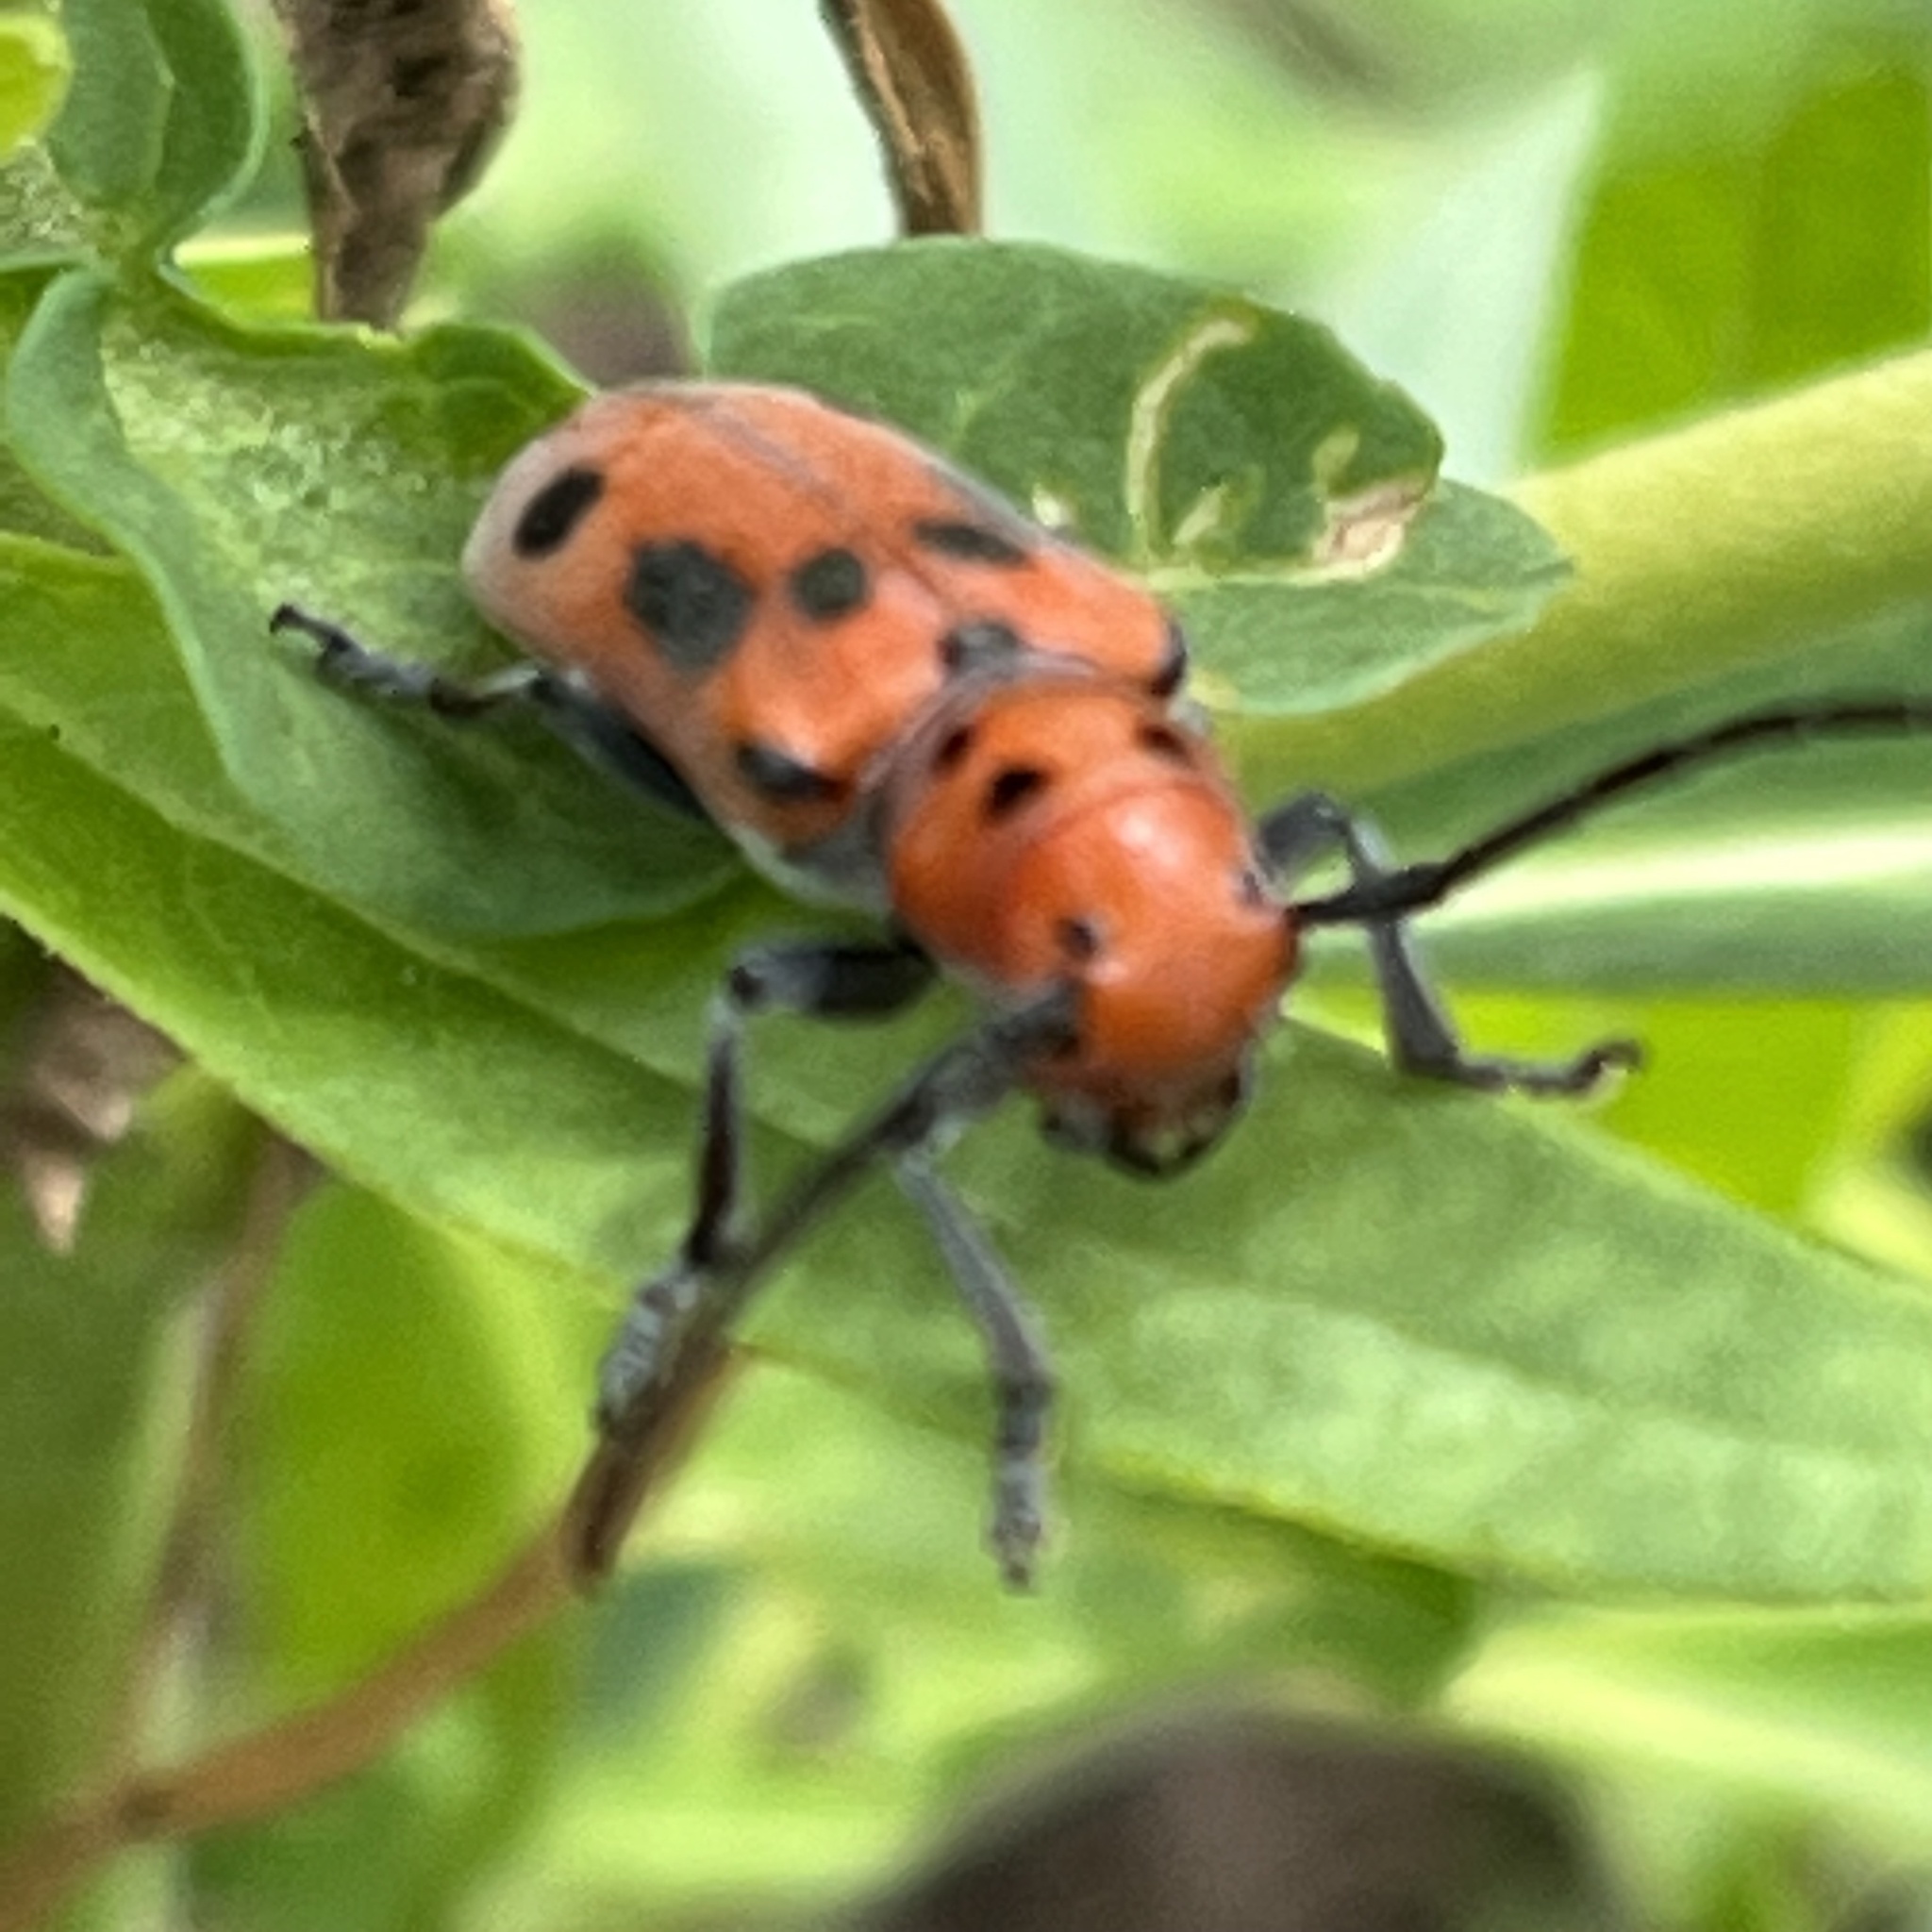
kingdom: Animalia
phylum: Arthropoda
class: Insecta
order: Coleoptera
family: Cerambycidae
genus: Tetraopes
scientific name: Tetraopes tetrophthalmus
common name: Red milkweed beetle
